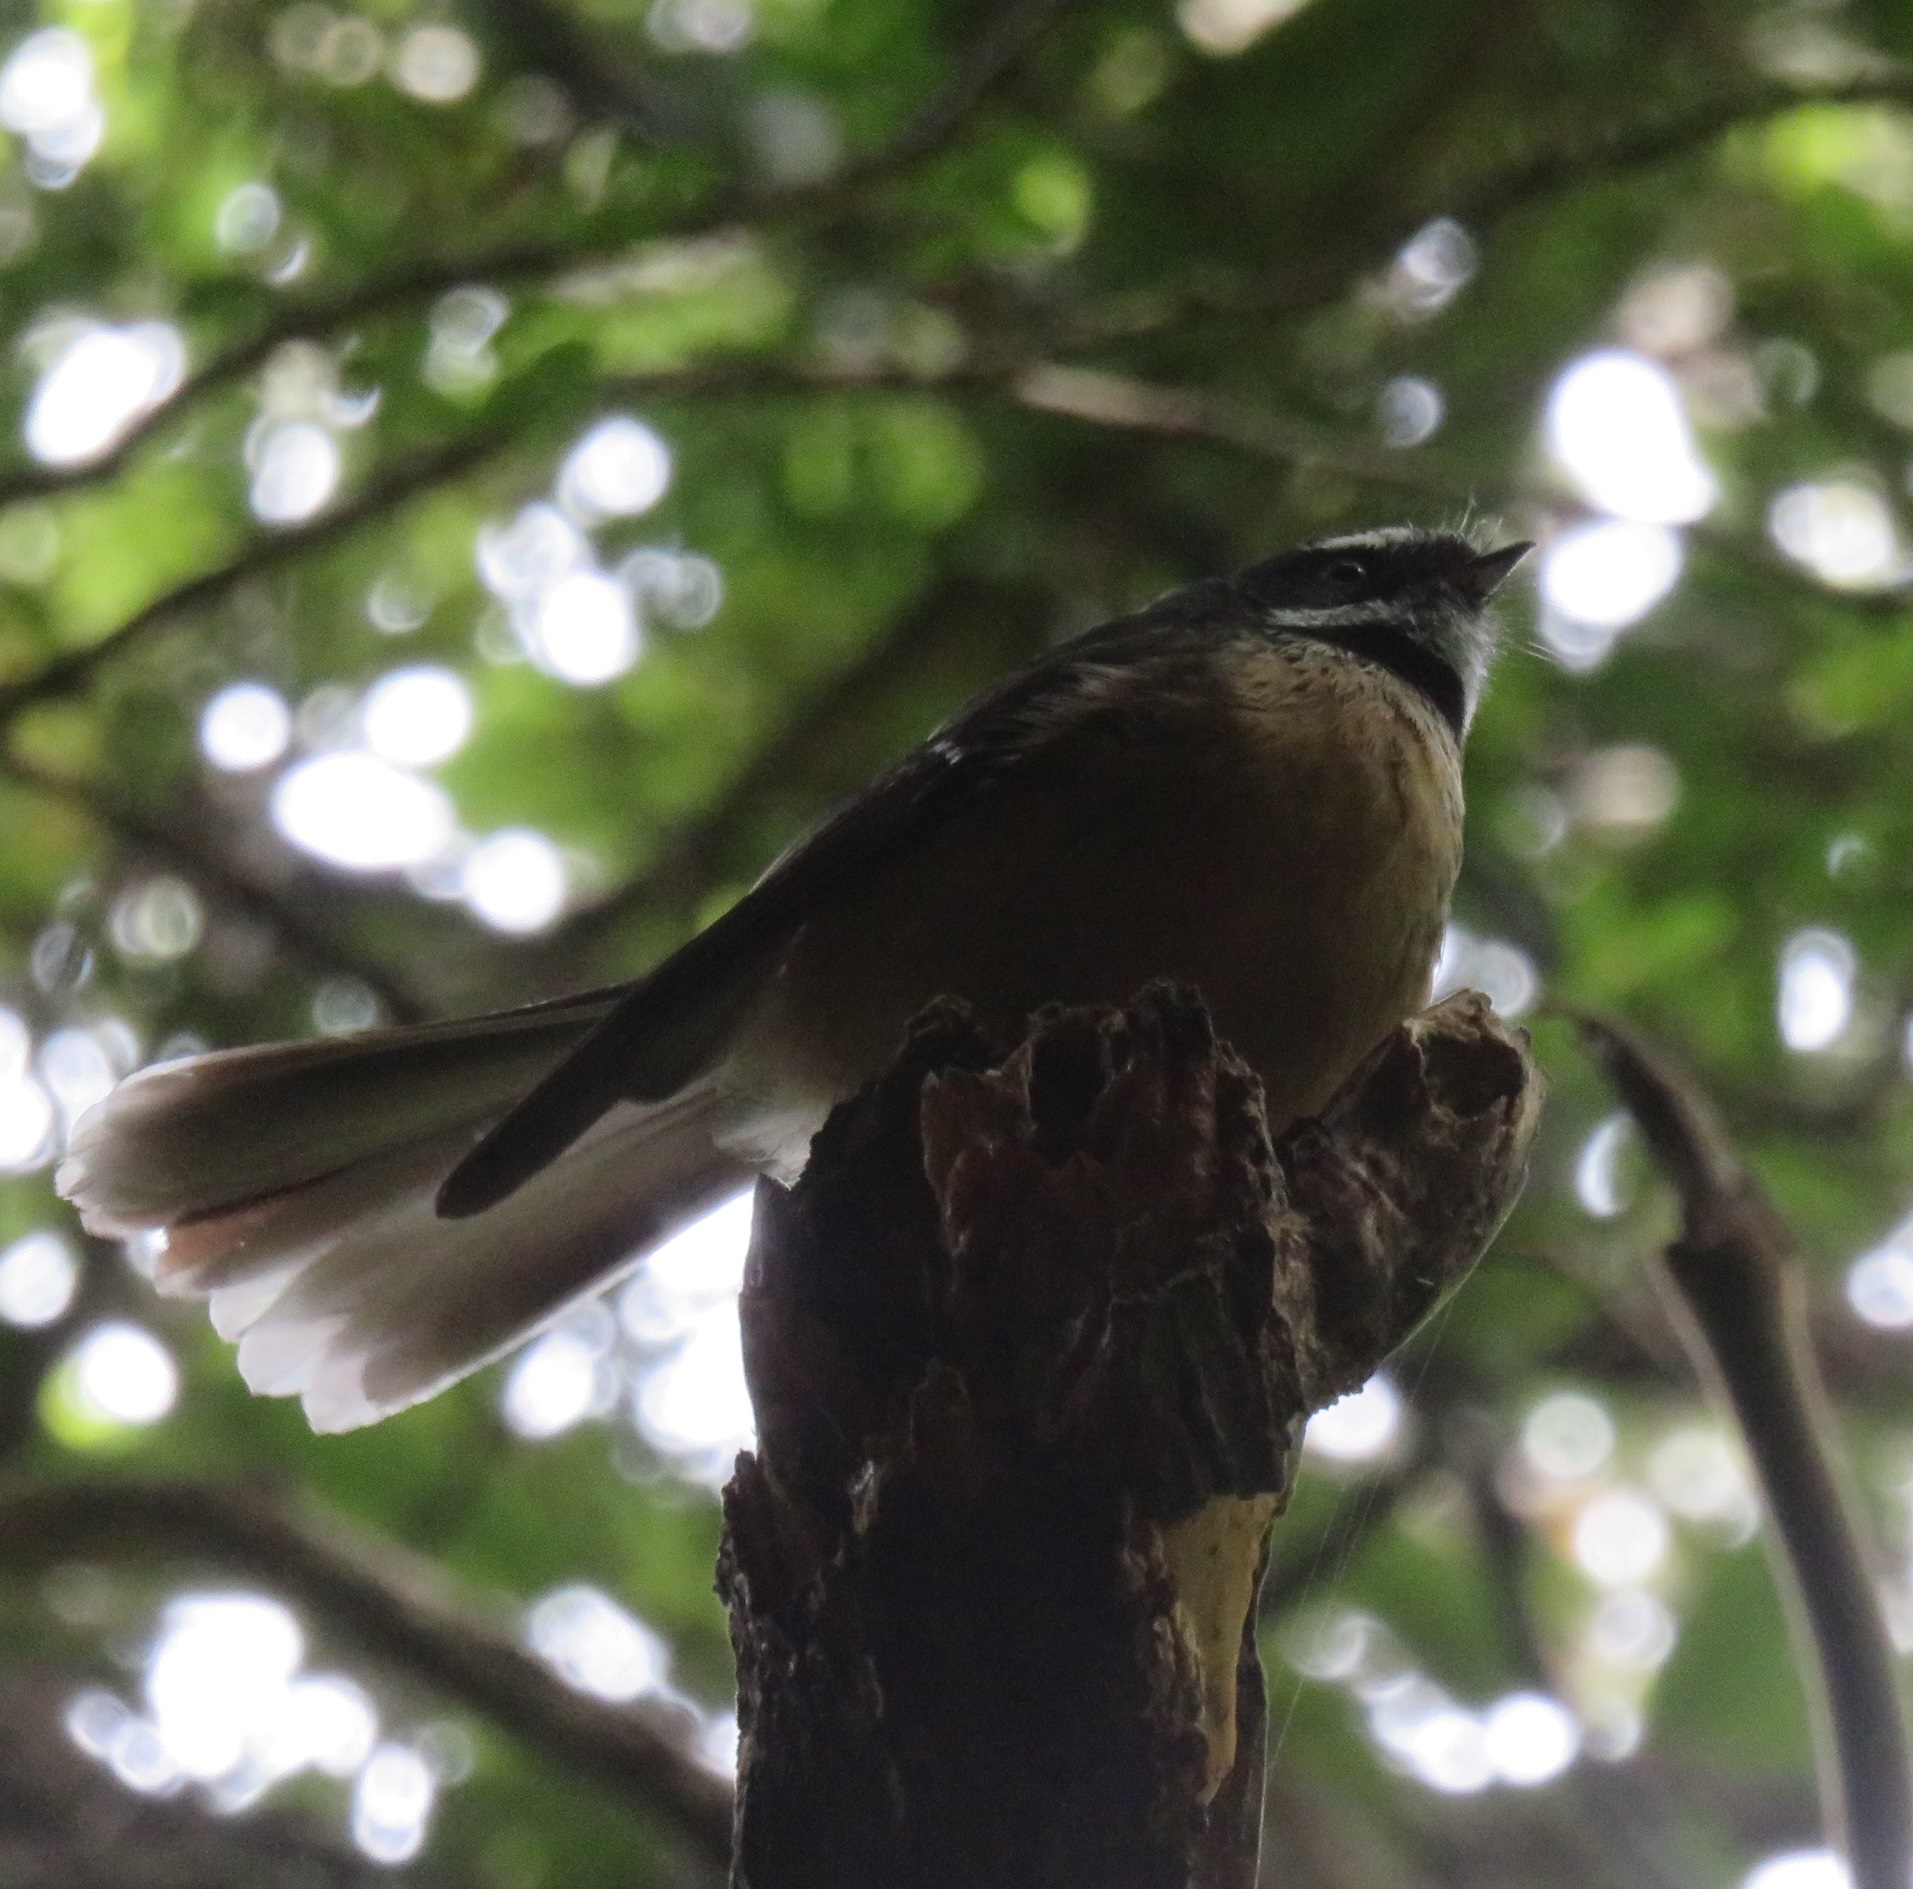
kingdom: Animalia
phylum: Chordata
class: Aves
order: Passeriformes
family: Rhipiduridae
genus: Rhipidura
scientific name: Rhipidura fuliginosa
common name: New zealand fantail
